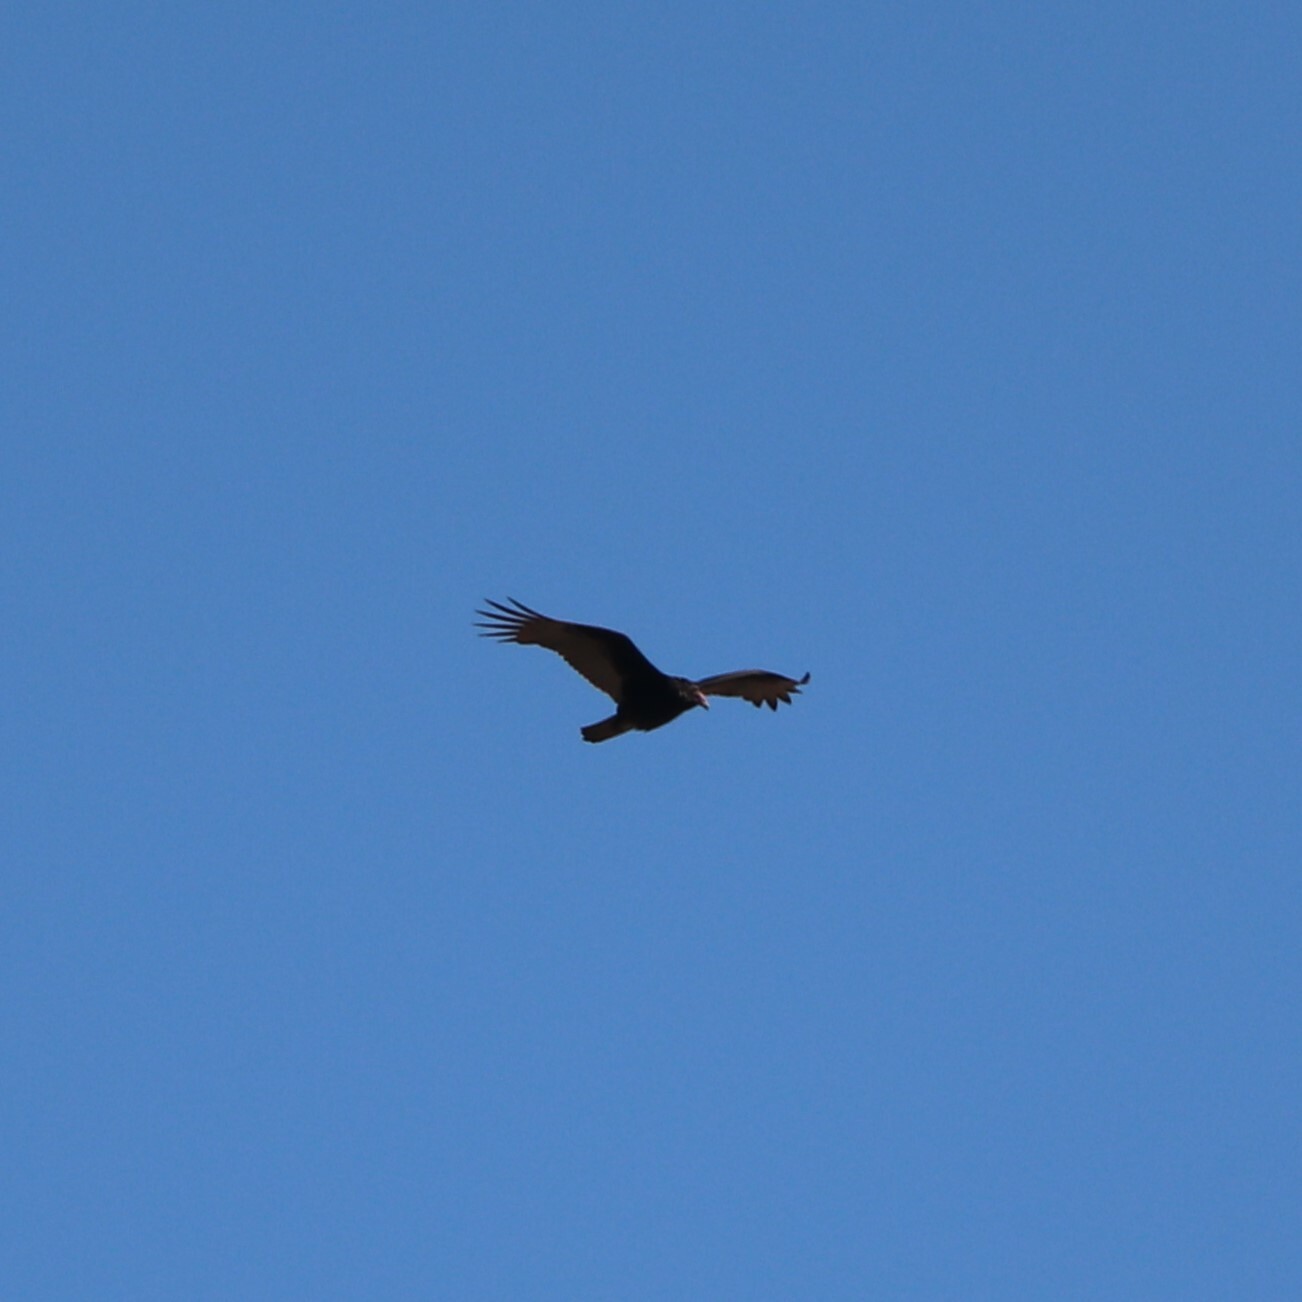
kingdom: Animalia
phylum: Chordata
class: Aves
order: Accipitriformes
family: Cathartidae
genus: Cathartes
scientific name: Cathartes aura
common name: Turkey vulture
